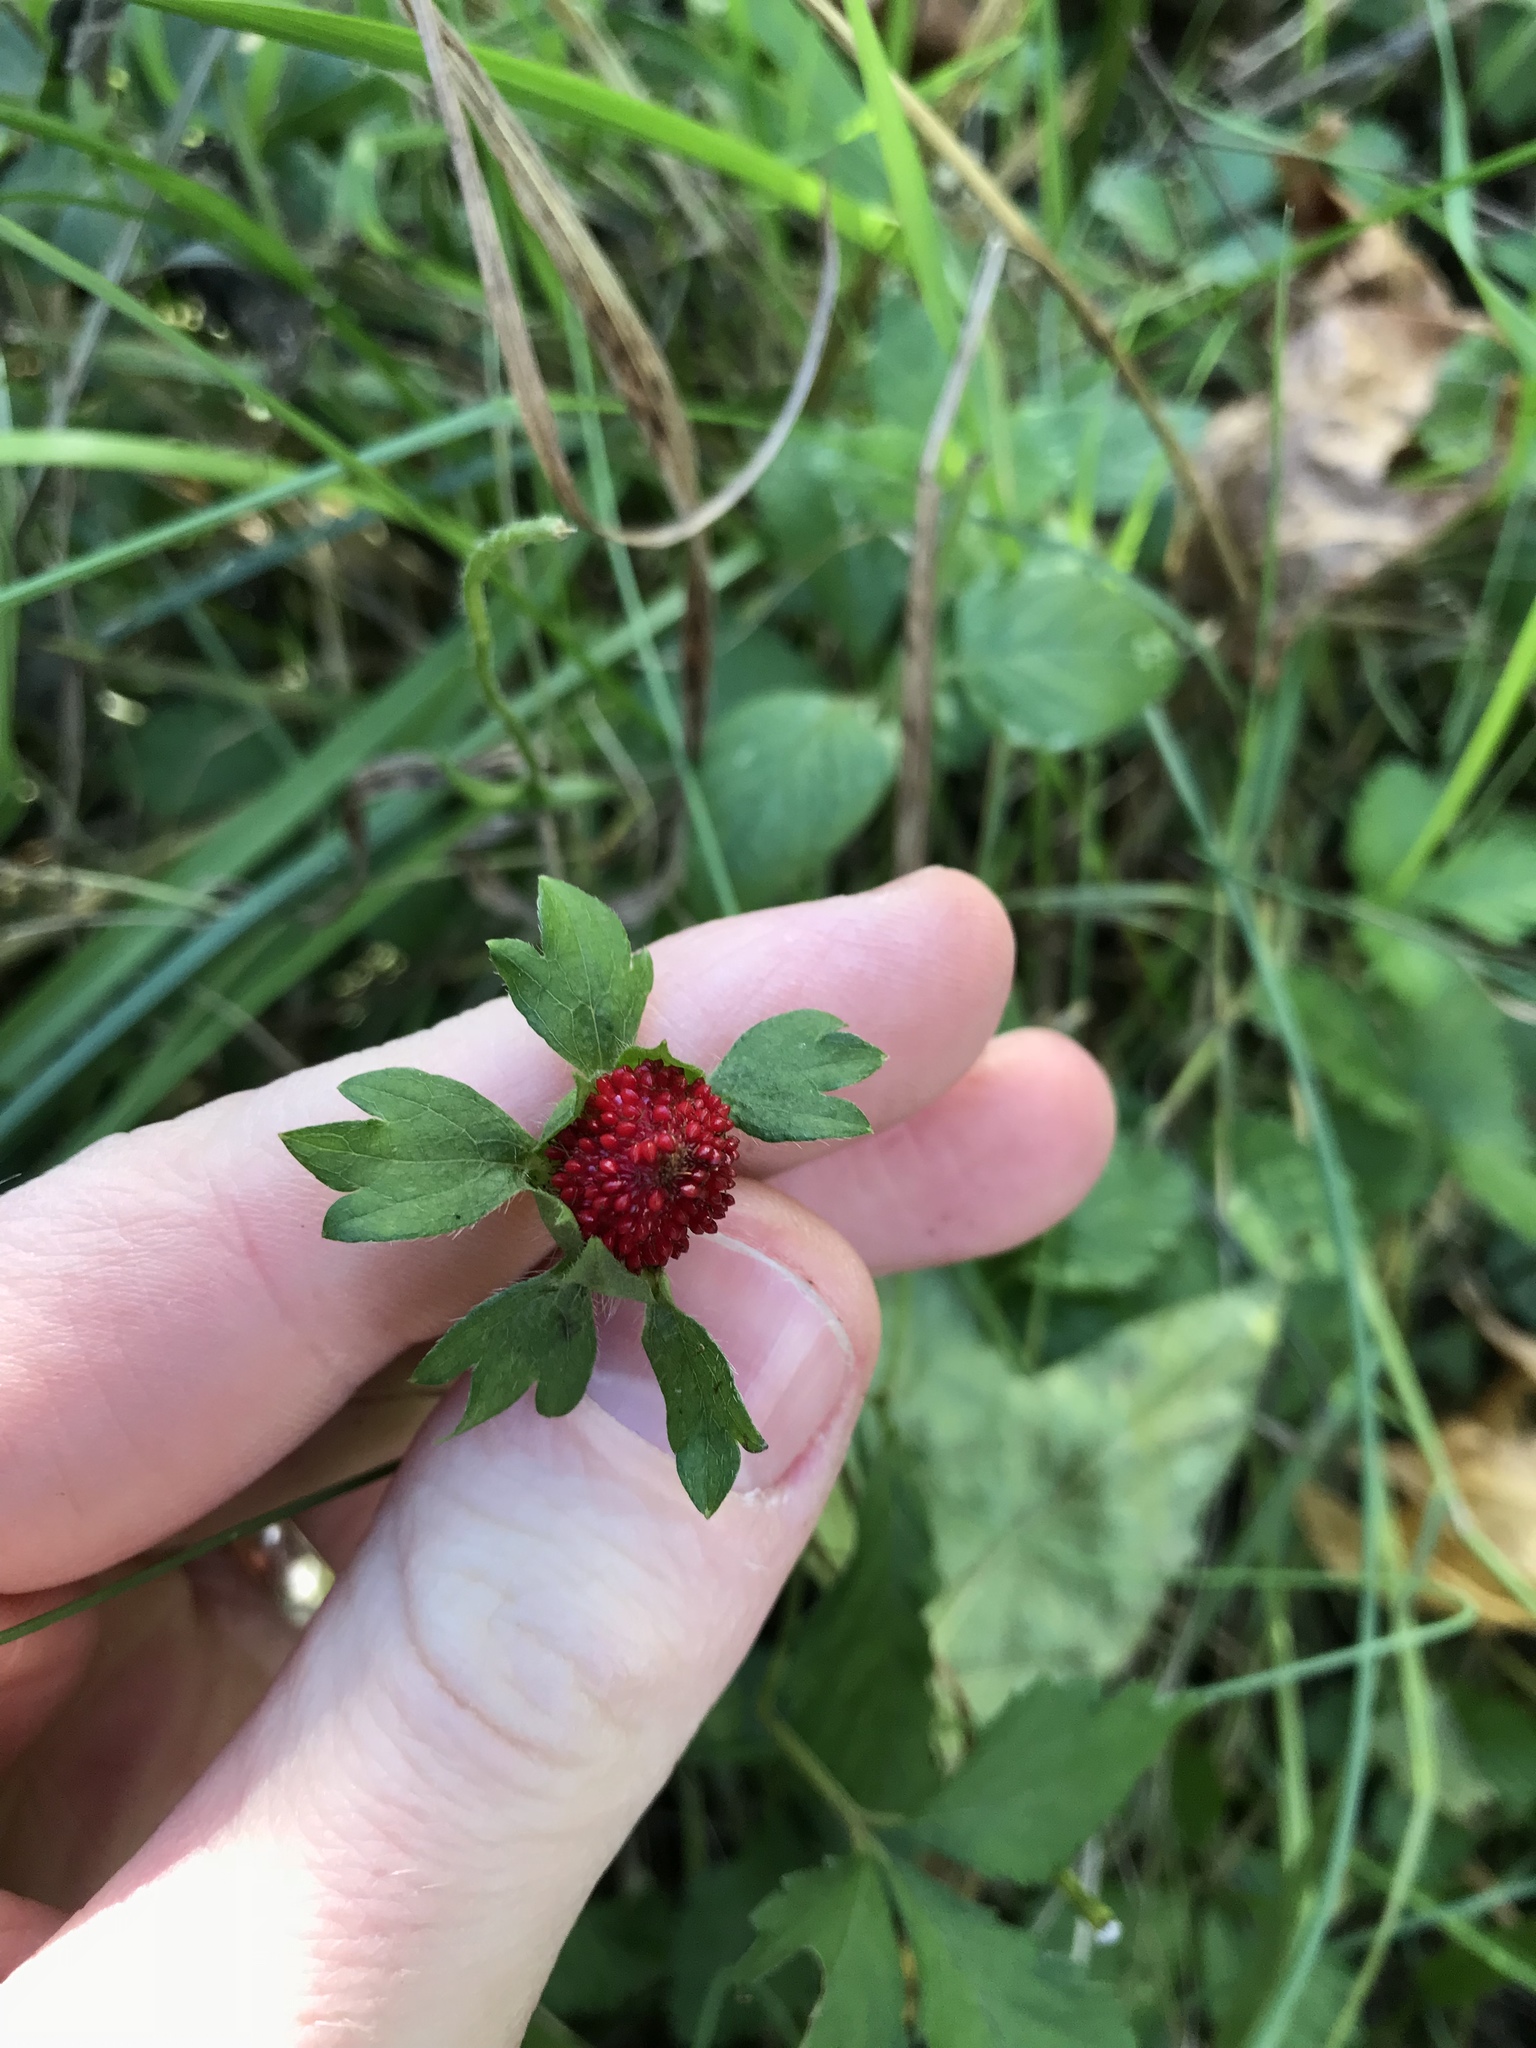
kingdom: Plantae
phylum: Tracheophyta
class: Magnoliopsida
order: Rosales
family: Rosaceae
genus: Potentilla
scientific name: Potentilla indica
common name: Yellow-flowered strawberry
